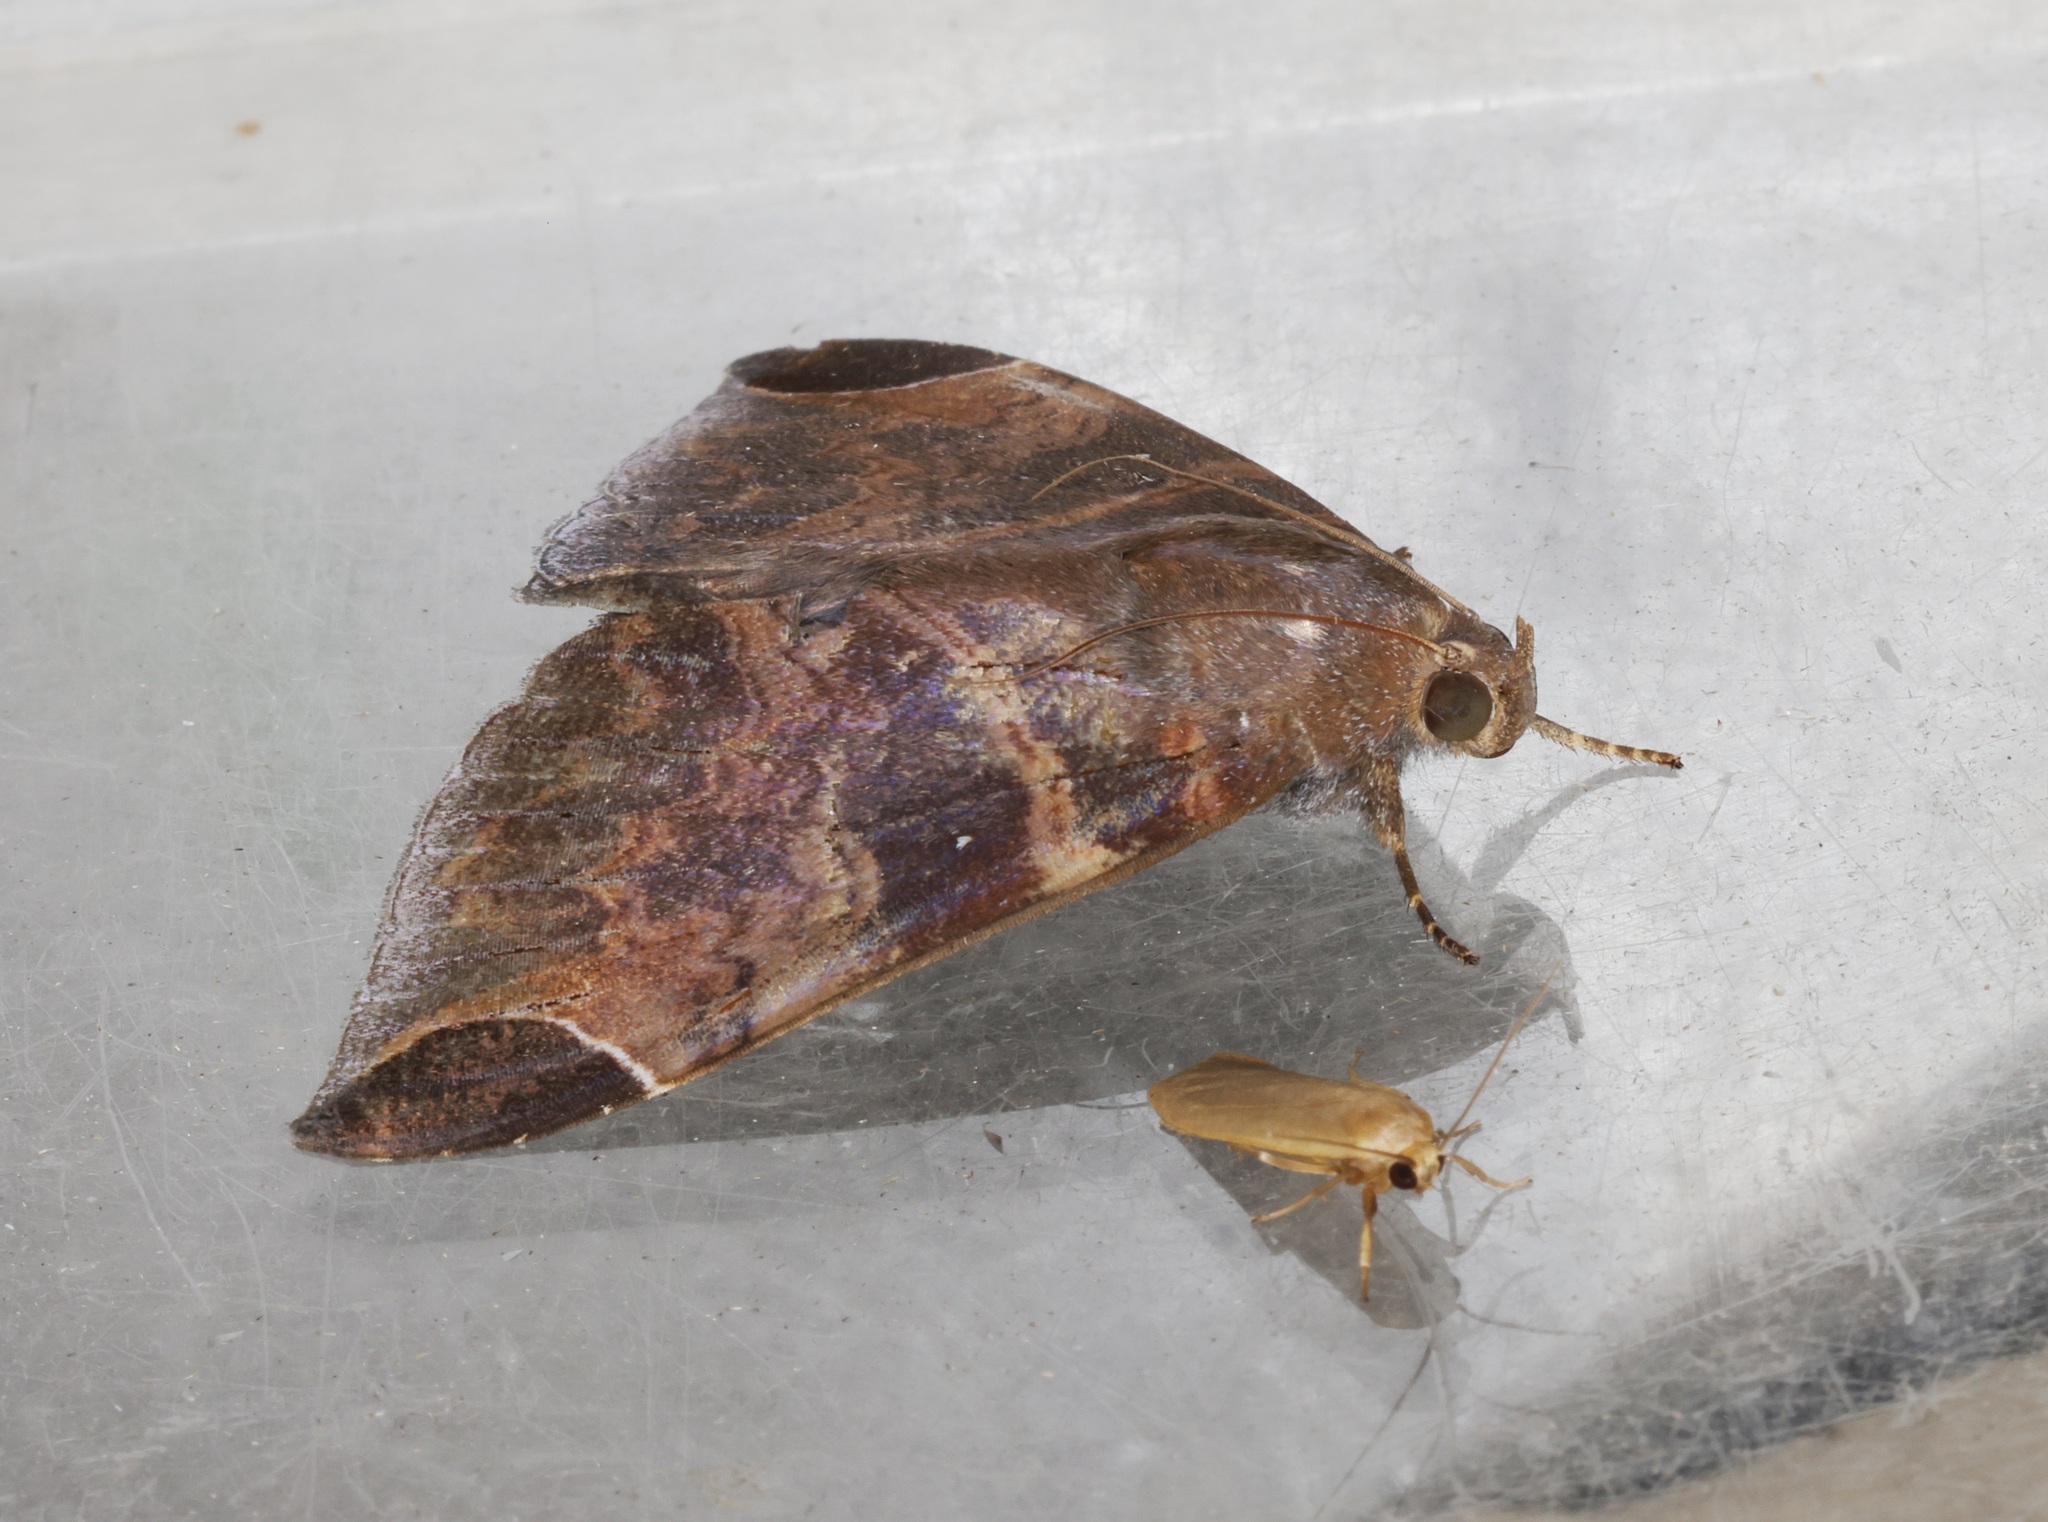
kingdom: Animalia
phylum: Arthropoda
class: Insecta
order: Lepidoptera
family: Erebidae
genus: Pindara
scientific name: Pindara illibata
